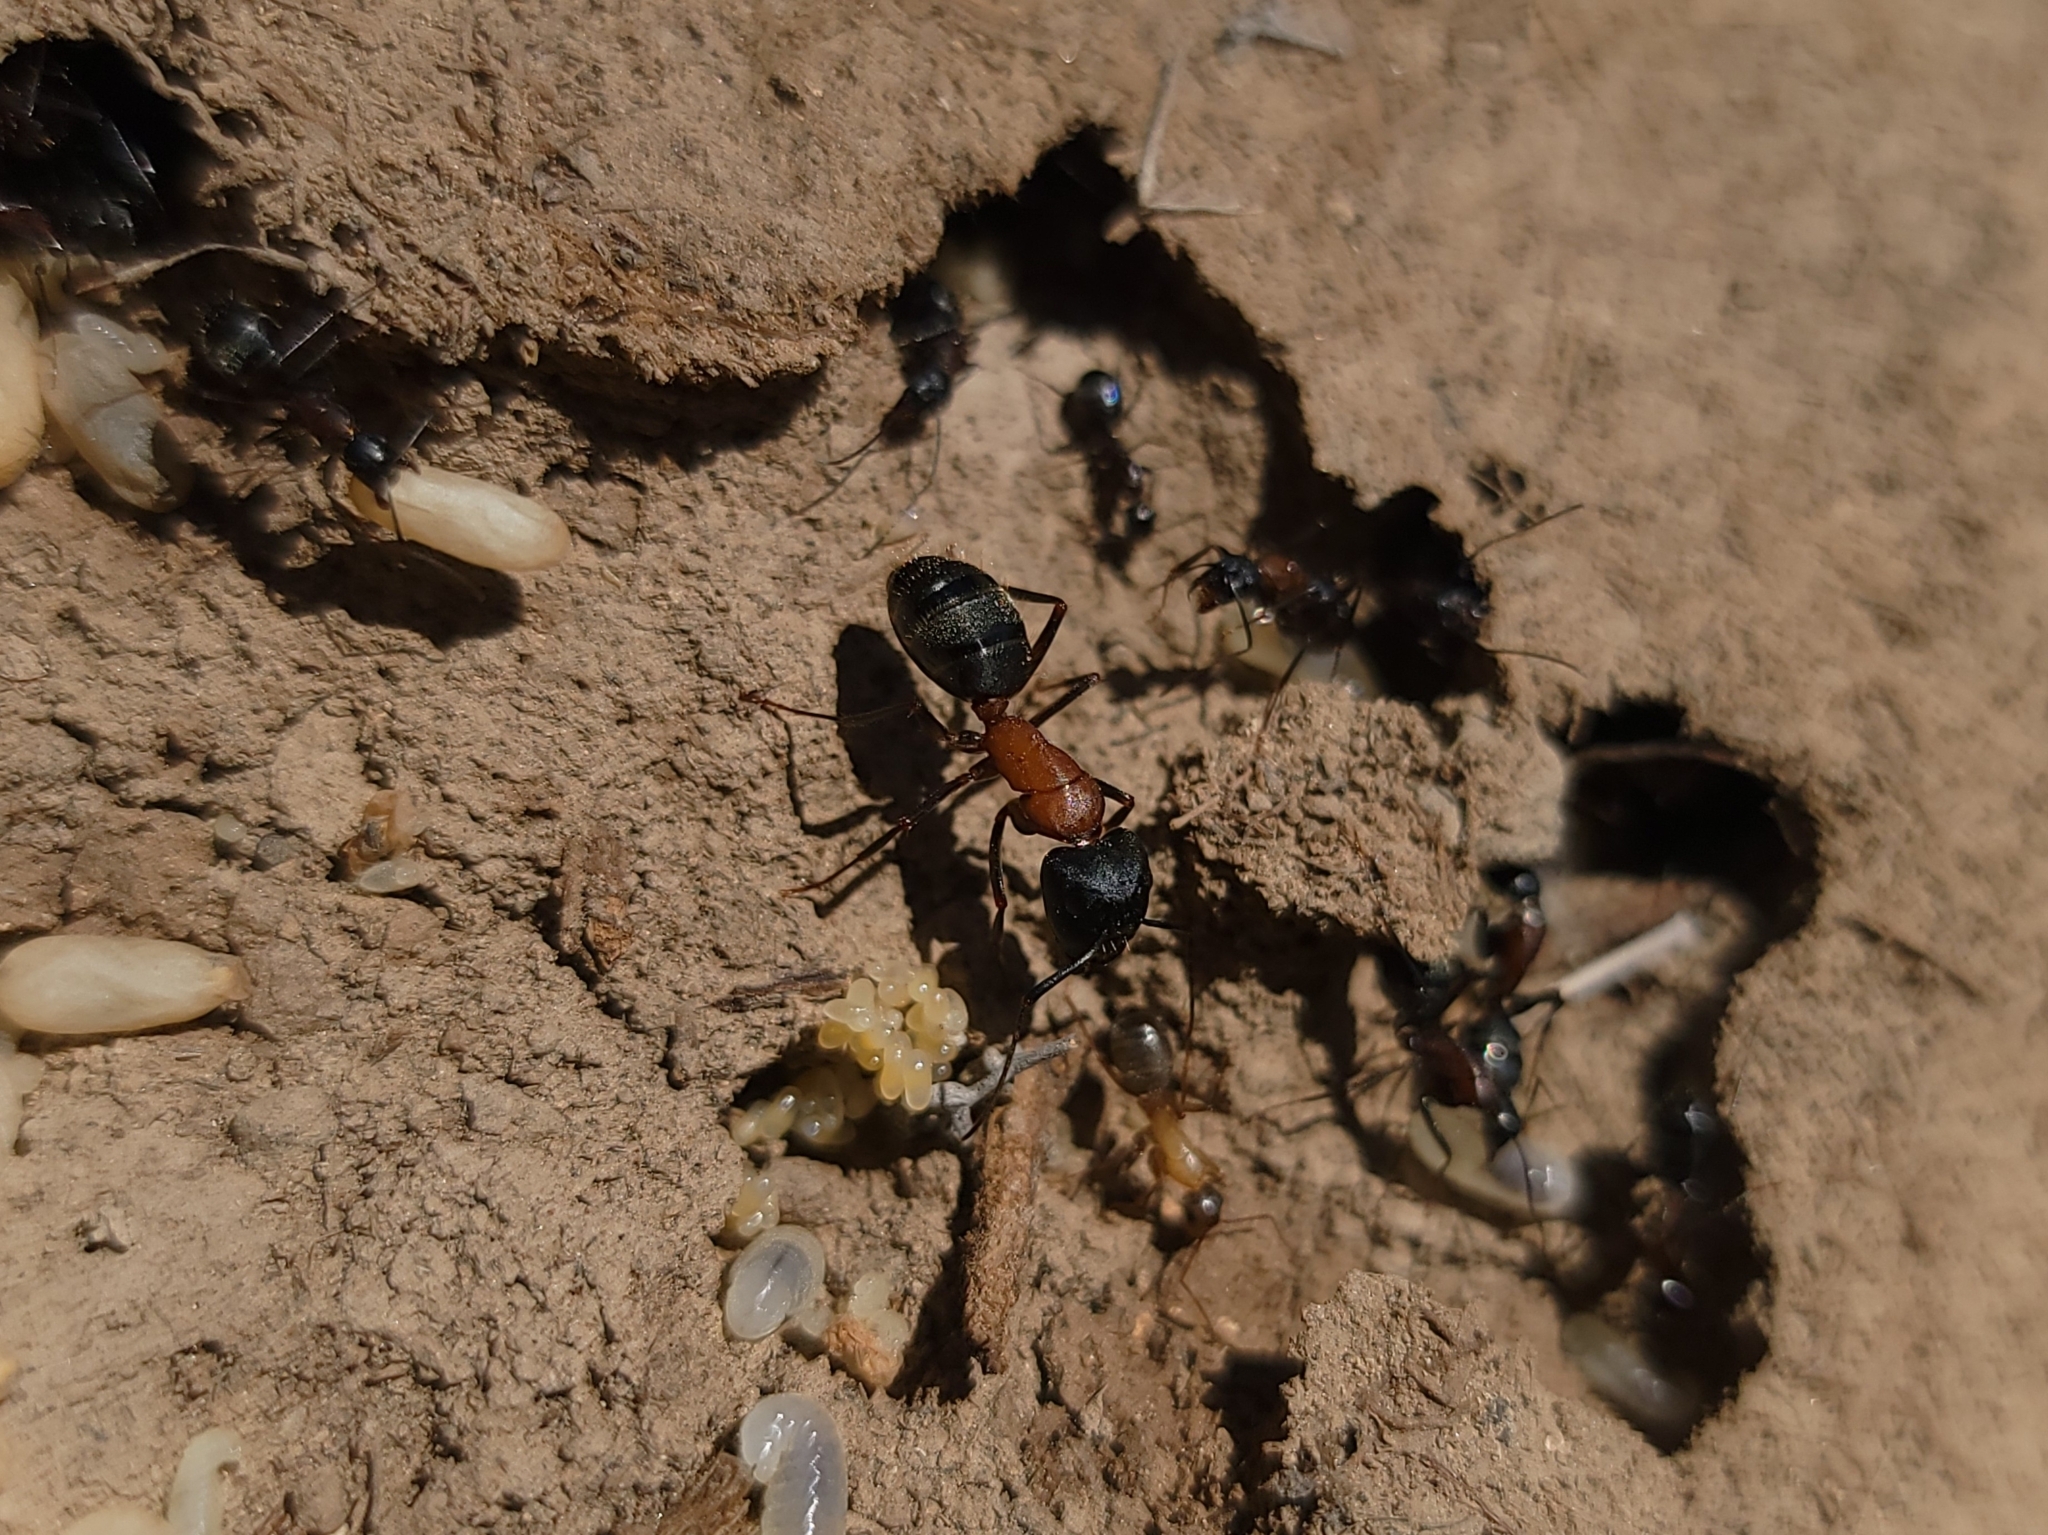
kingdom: Animalia
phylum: Arthropoda
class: Insecta
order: Hymenoptera
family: Formicidae
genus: Camponotus
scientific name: Camponotus vicinus
